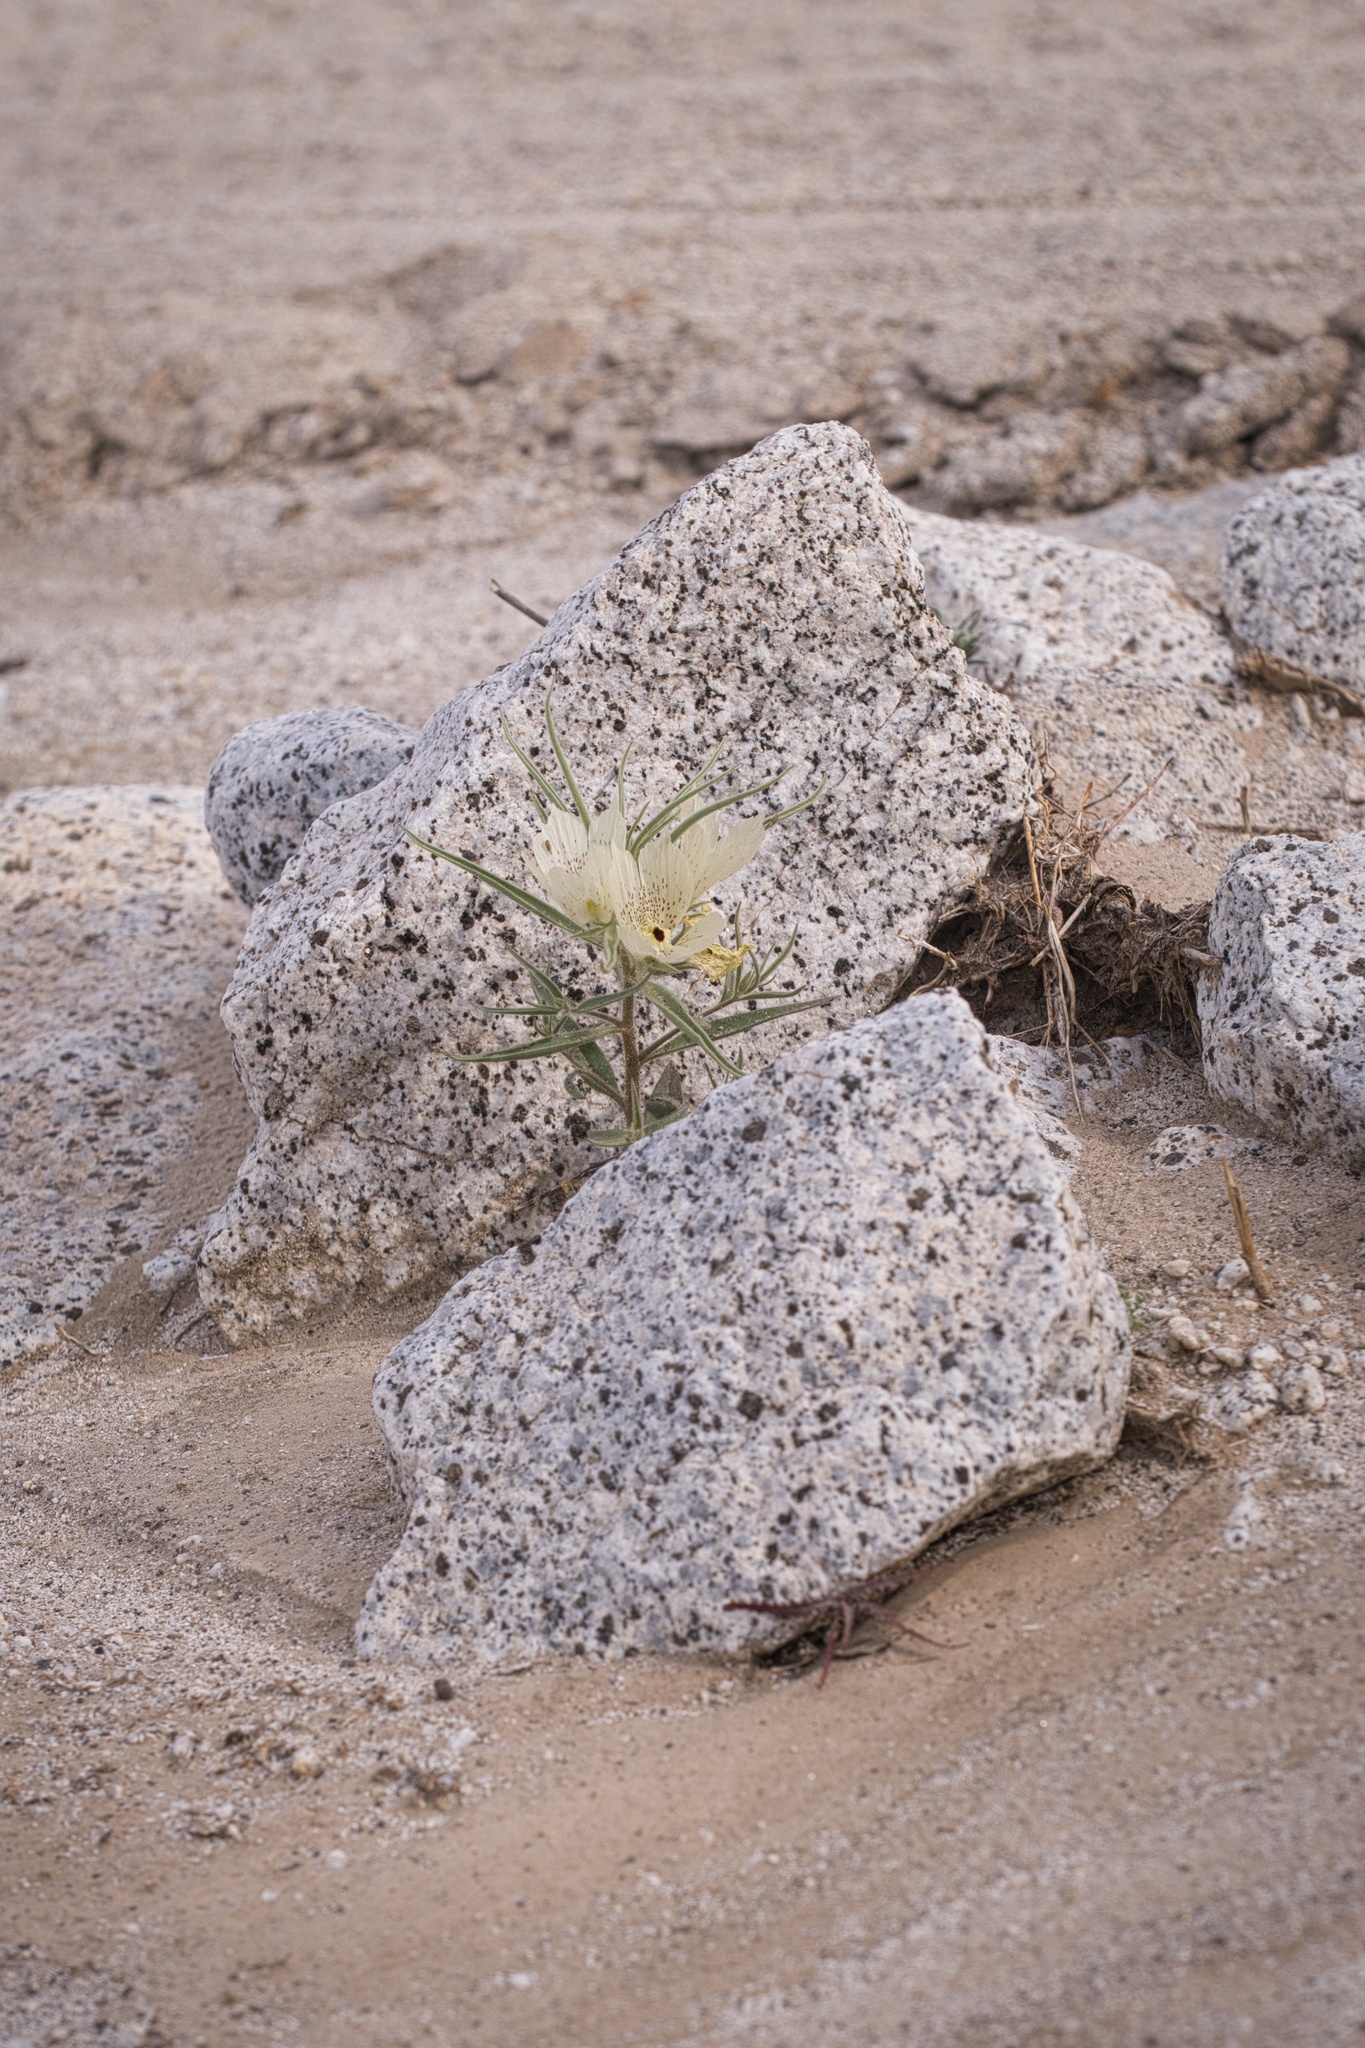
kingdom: Plantae
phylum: Tracheophyta
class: Magnoliopsida
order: Lamiales
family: Plantaginaceae
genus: Mohavea
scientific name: Mohavea confertiflora
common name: Ghost flower
